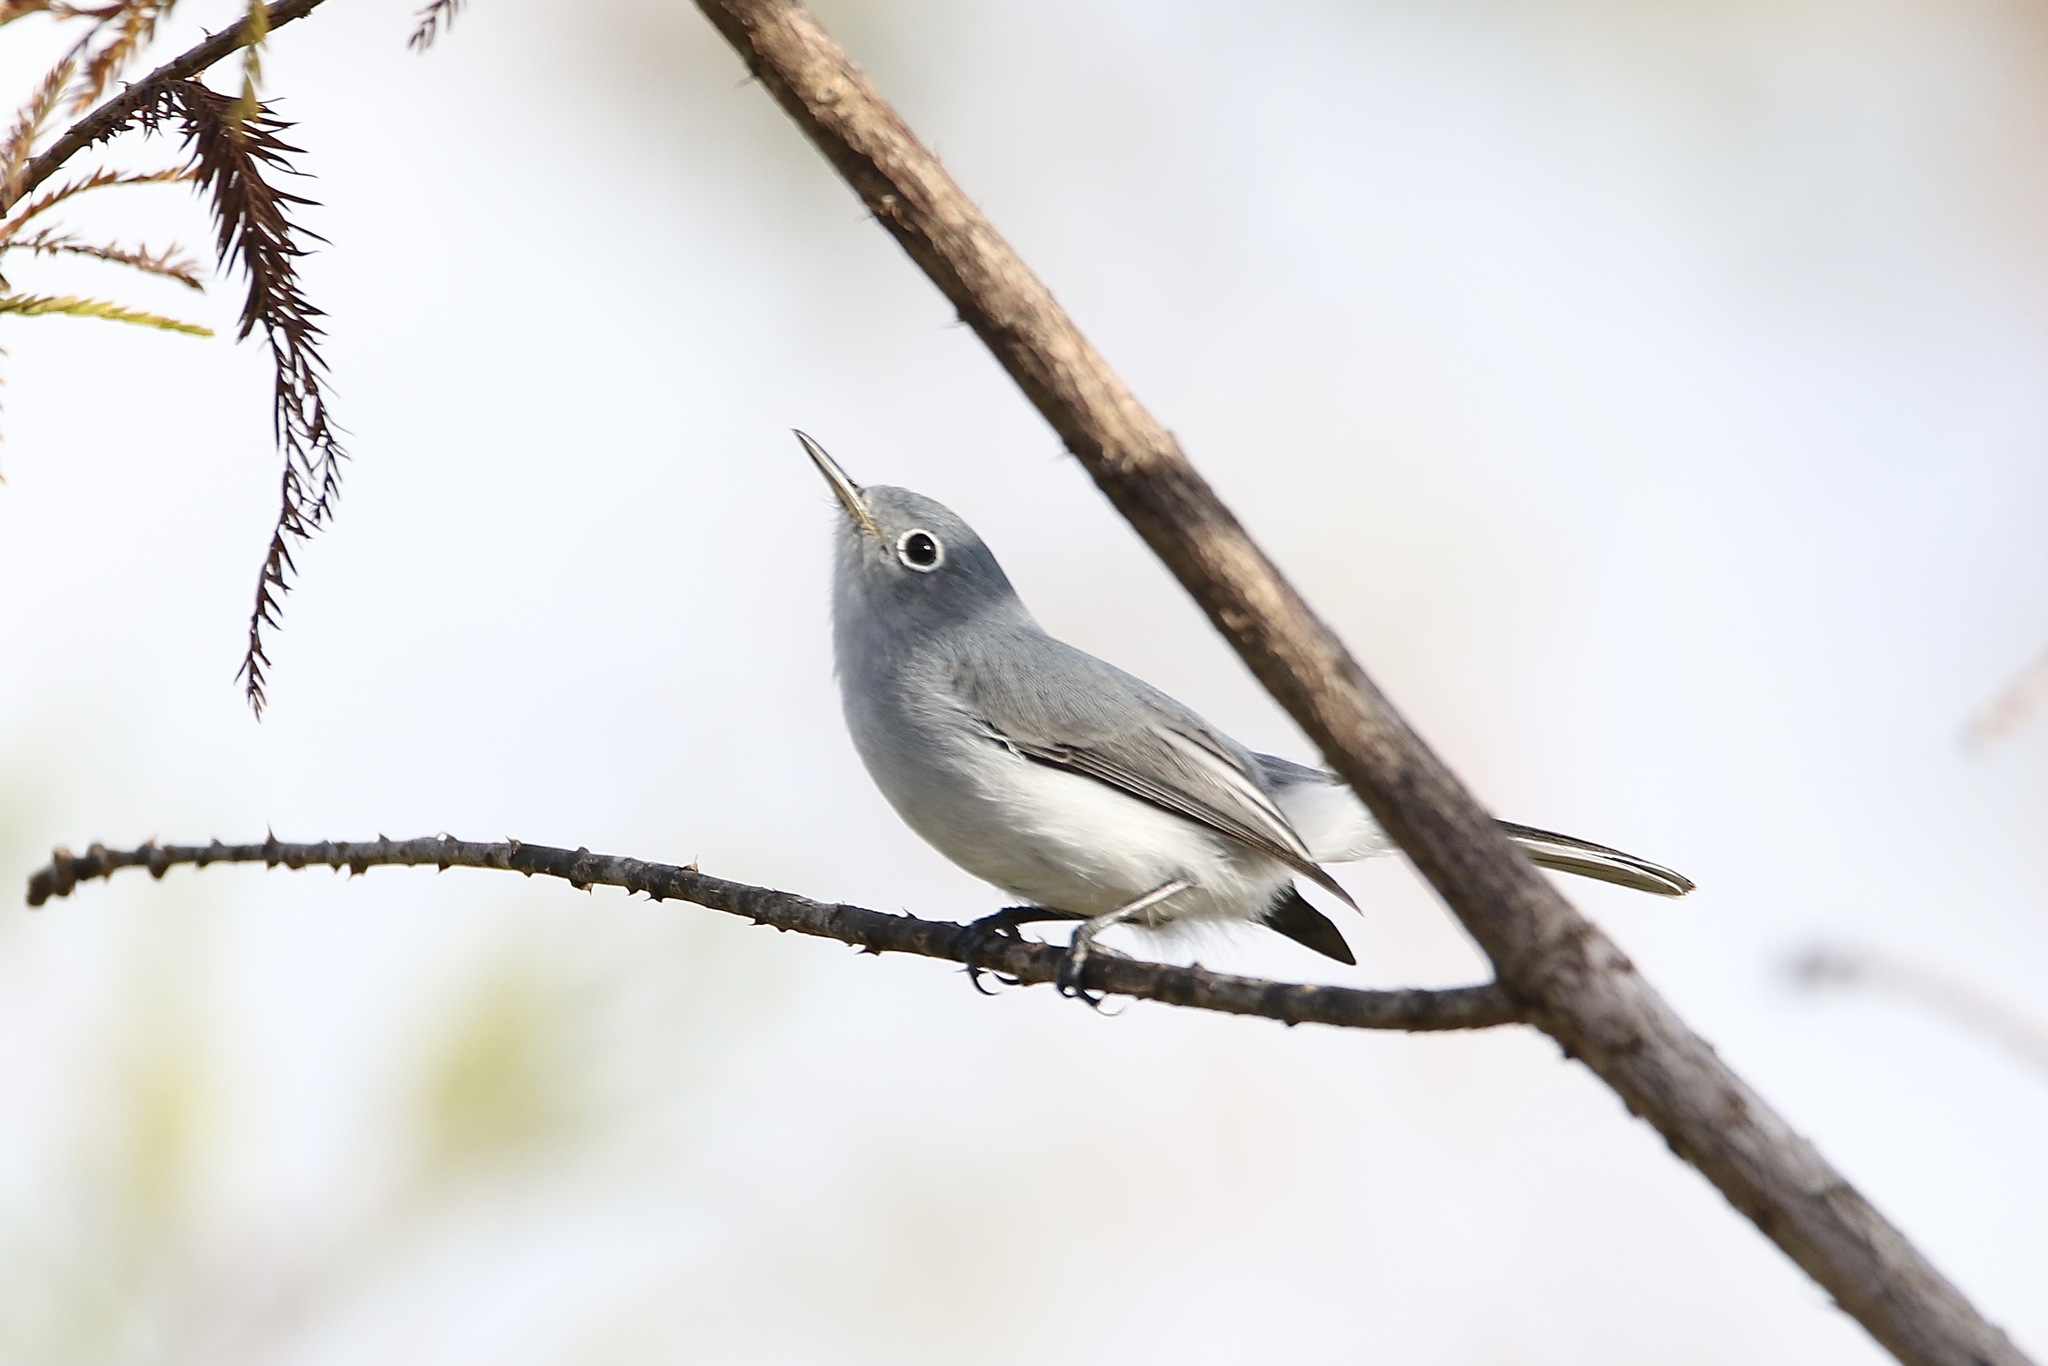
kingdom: Animalia
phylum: Chordata
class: Aves
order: Passeriformes
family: Polioptilidae
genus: Polioptila
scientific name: Polioptila caerulea
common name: Blue-gray gnatcatcher
